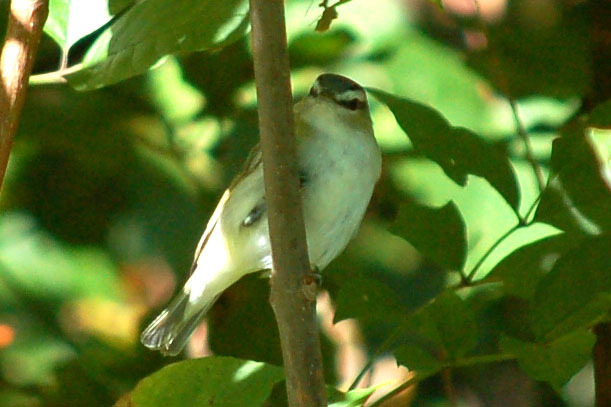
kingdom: Animalia
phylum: Chordata
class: Aves
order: Passeriformes
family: Vireonidae
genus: Vireo
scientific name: Vireo olivaceus
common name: Red-eyed vireo
